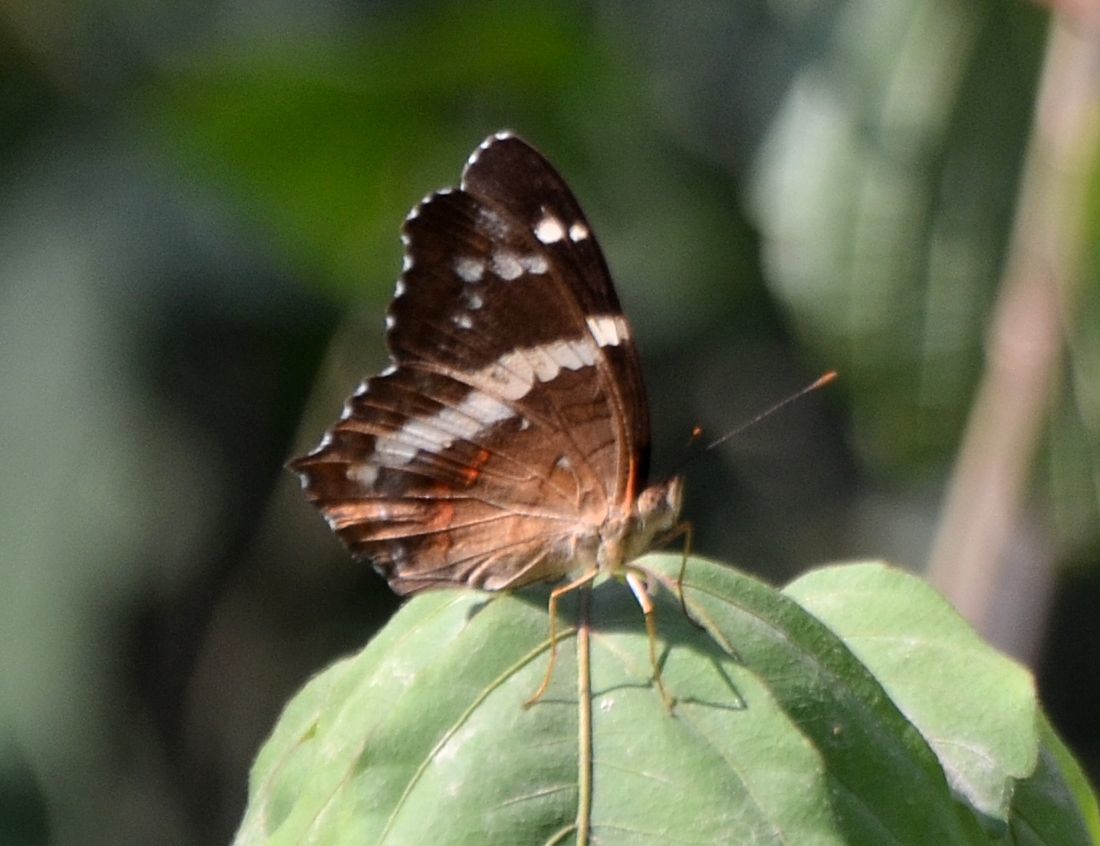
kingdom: Animalia
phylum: Arthropoda
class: Insecta
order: Lepidoptera
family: Nymphalidae
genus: Anartia
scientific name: Anartia fatima
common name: Banded peacock
